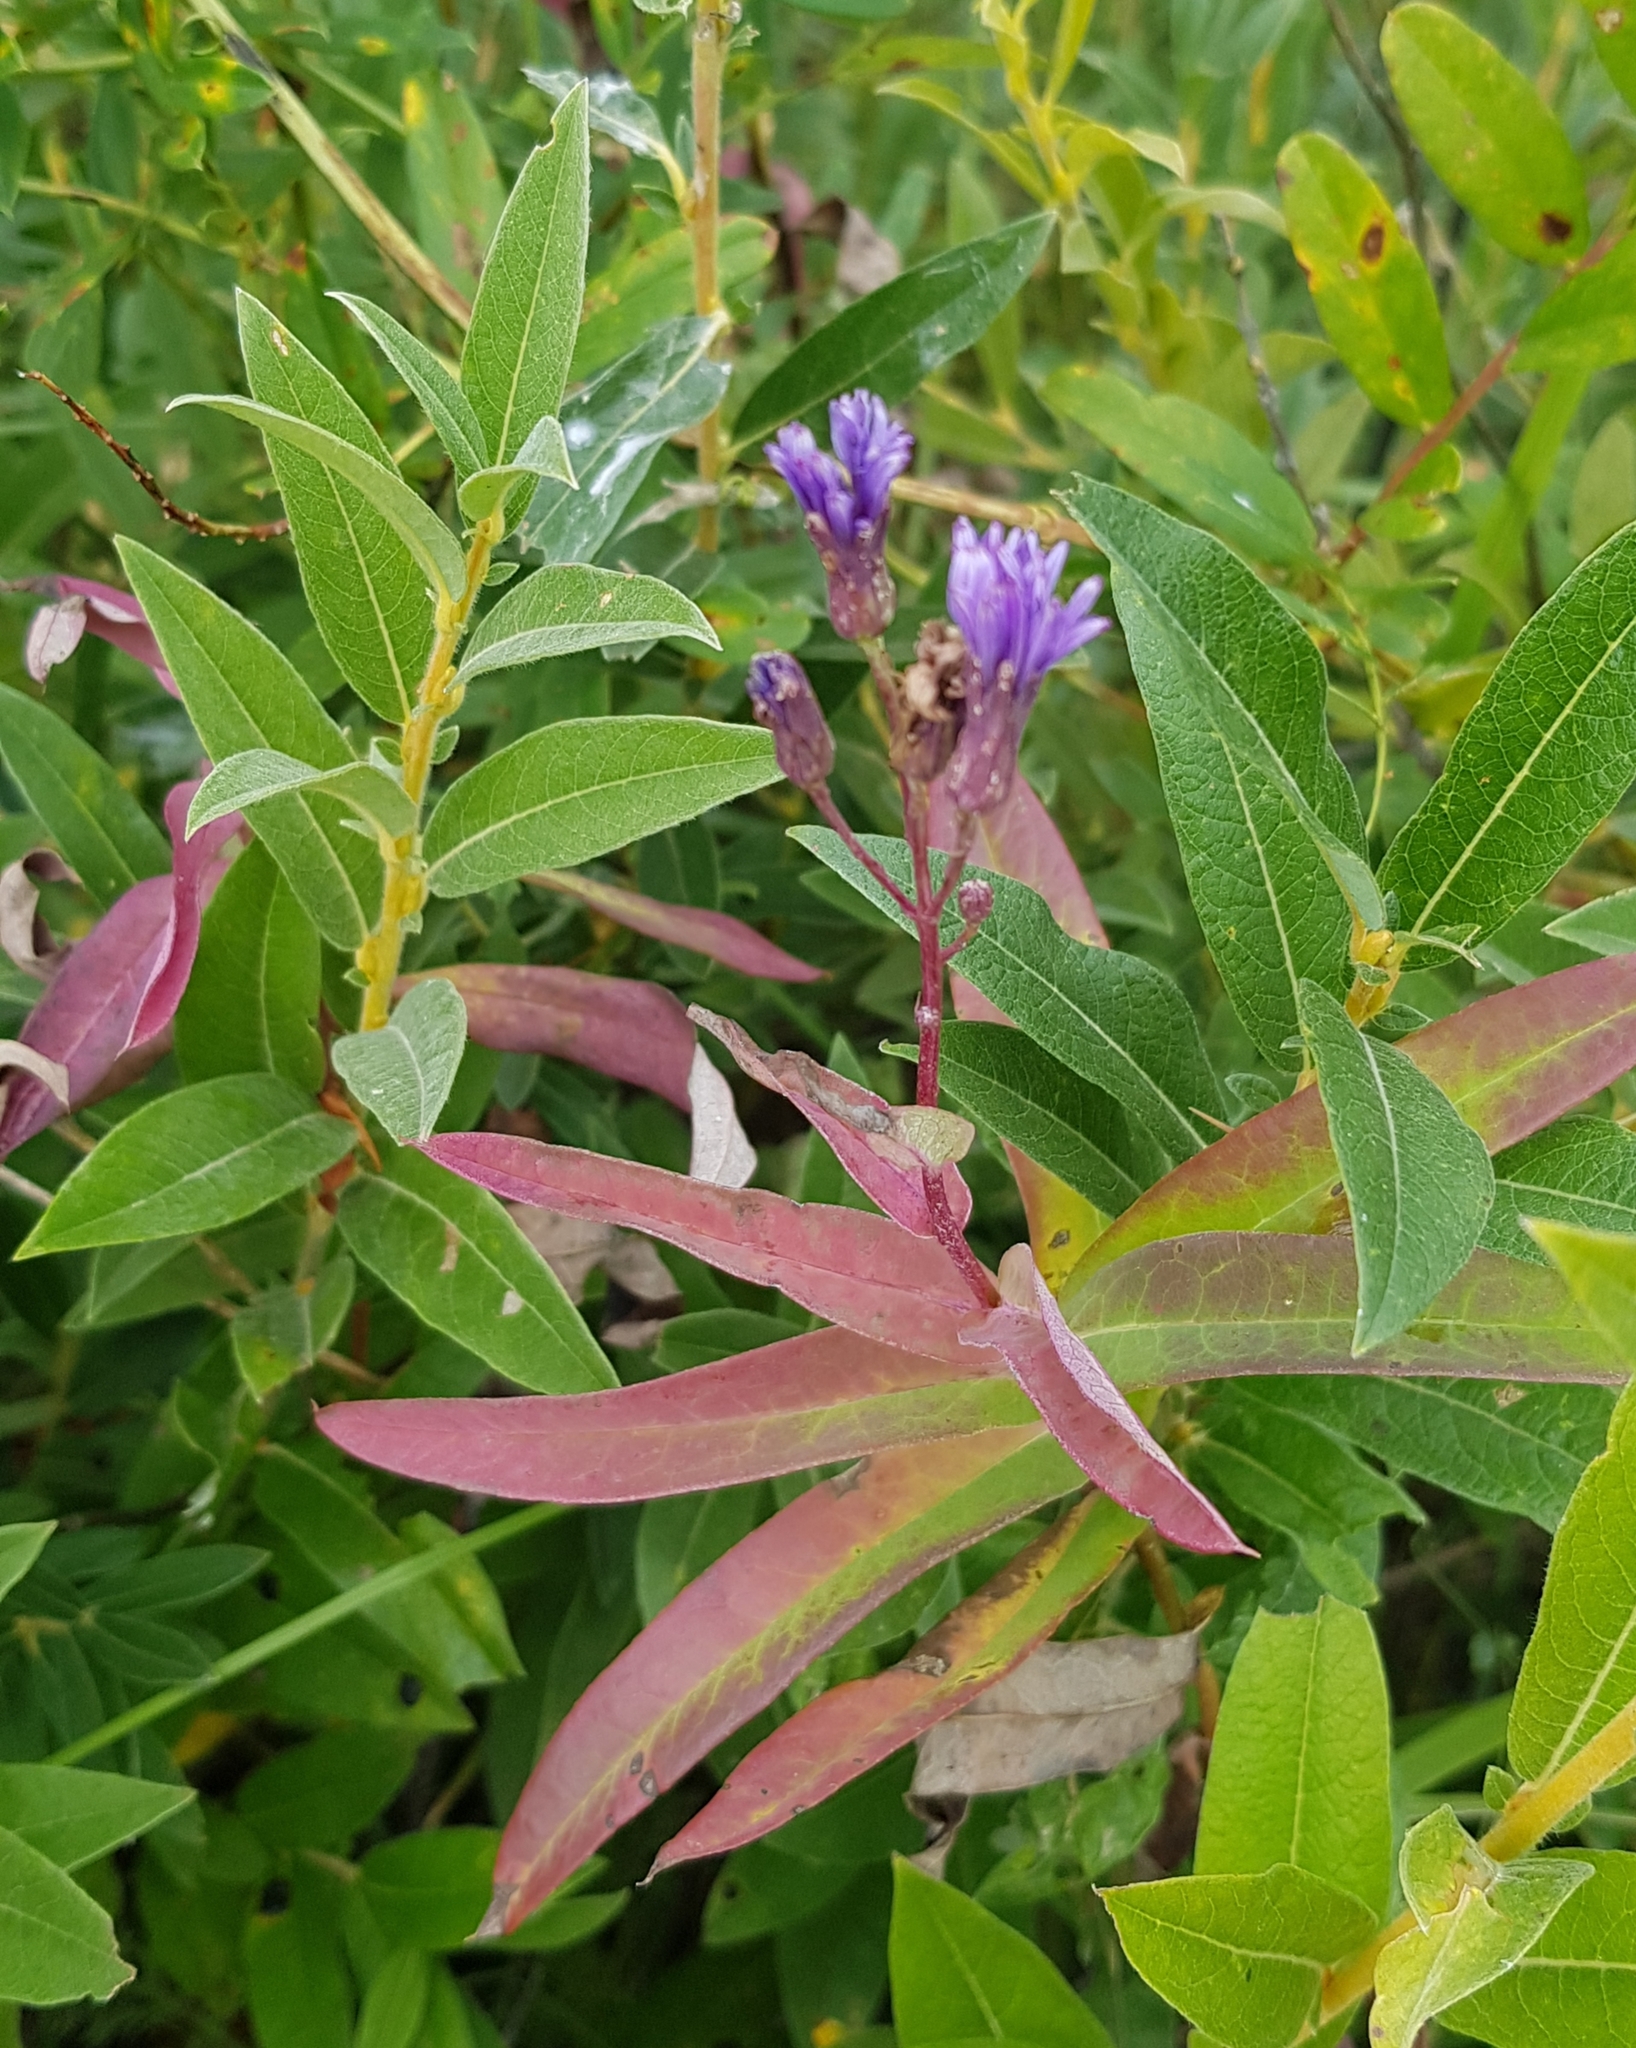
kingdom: Plantae
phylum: Tracheophyta
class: Magnoliopsida
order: Asterales
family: Asteraceae
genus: Lactuca
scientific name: Lactuca sibirica
